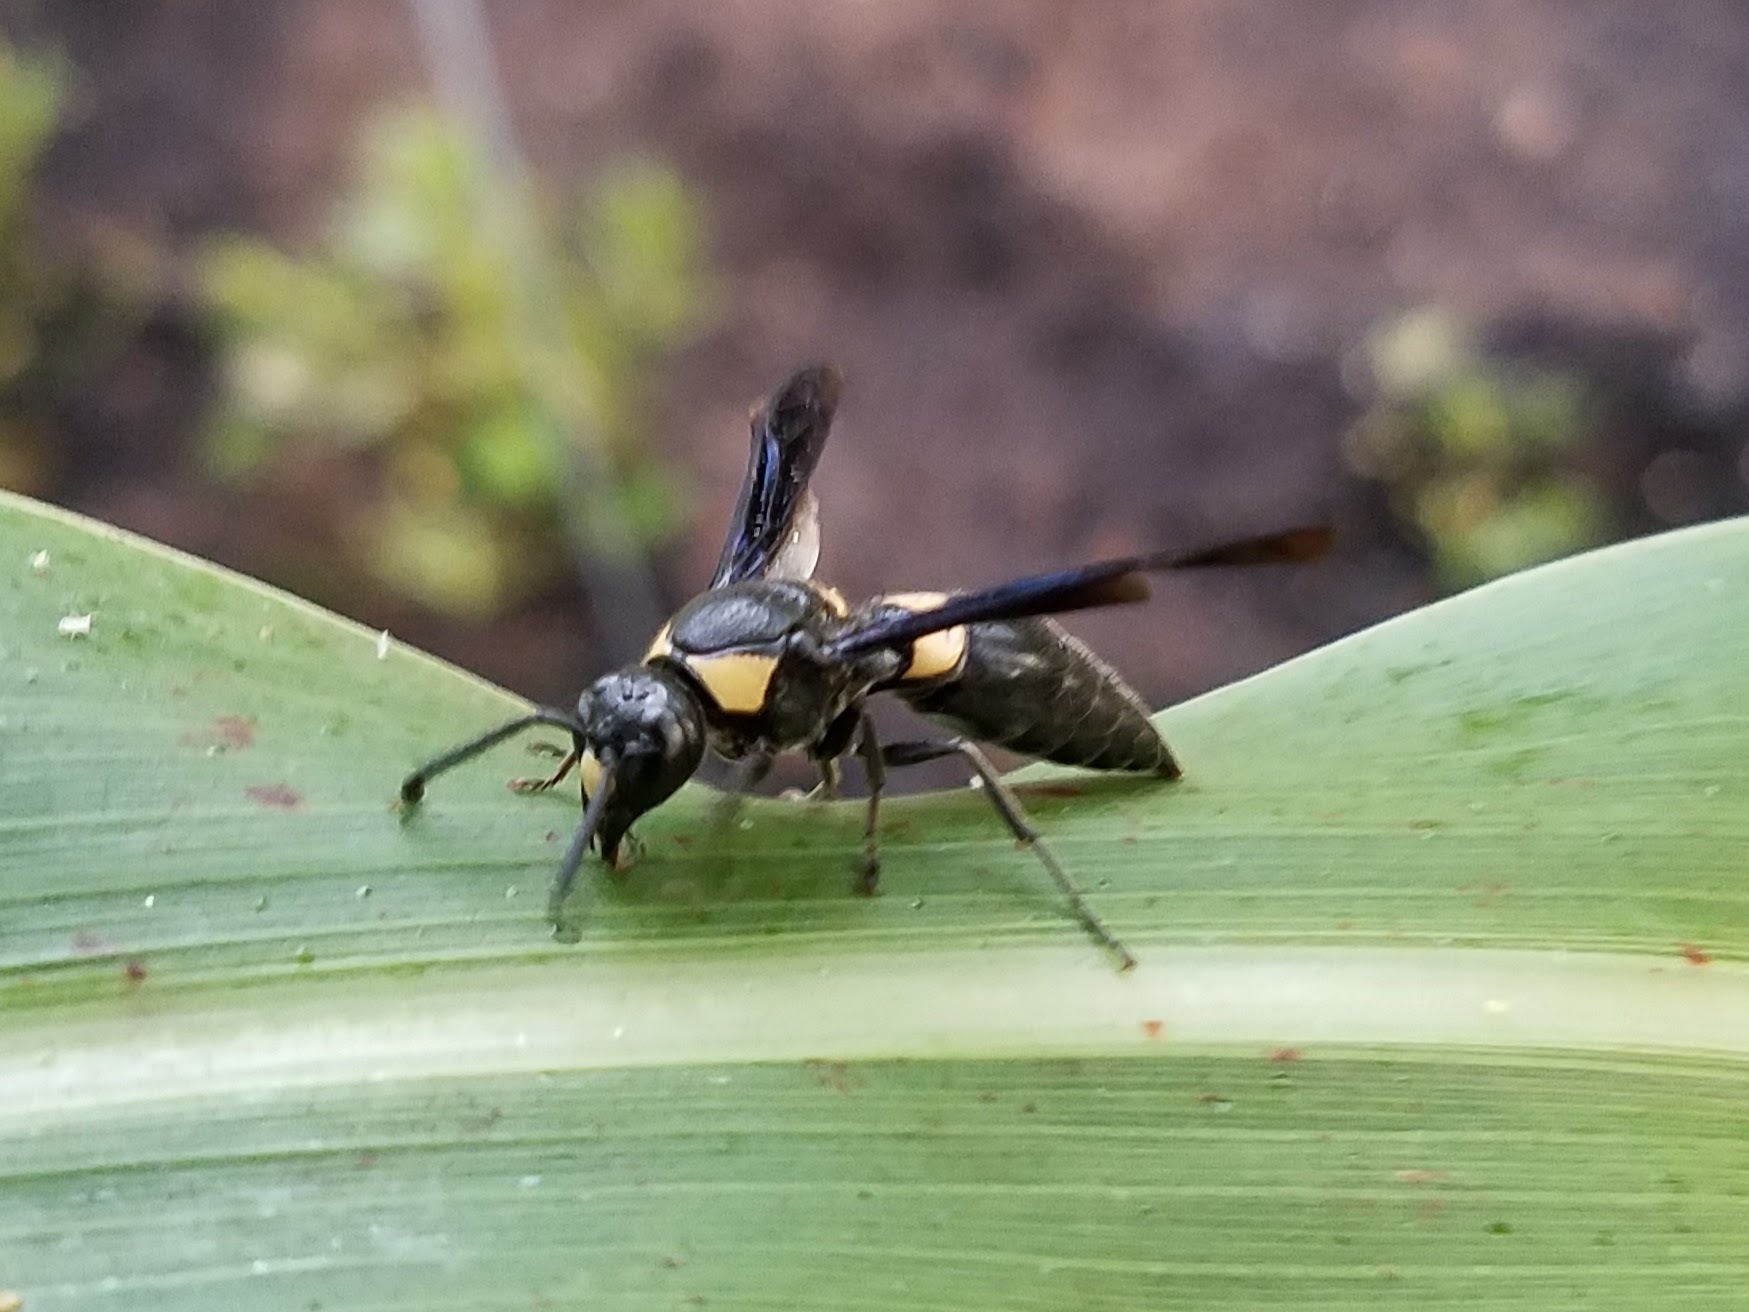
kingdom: Animalia
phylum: Arthropoda
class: Insecta
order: Hymenoptera
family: Eumenidae
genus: Monobia
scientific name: Monobia quadridens
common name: Four-toothed mason wasp
